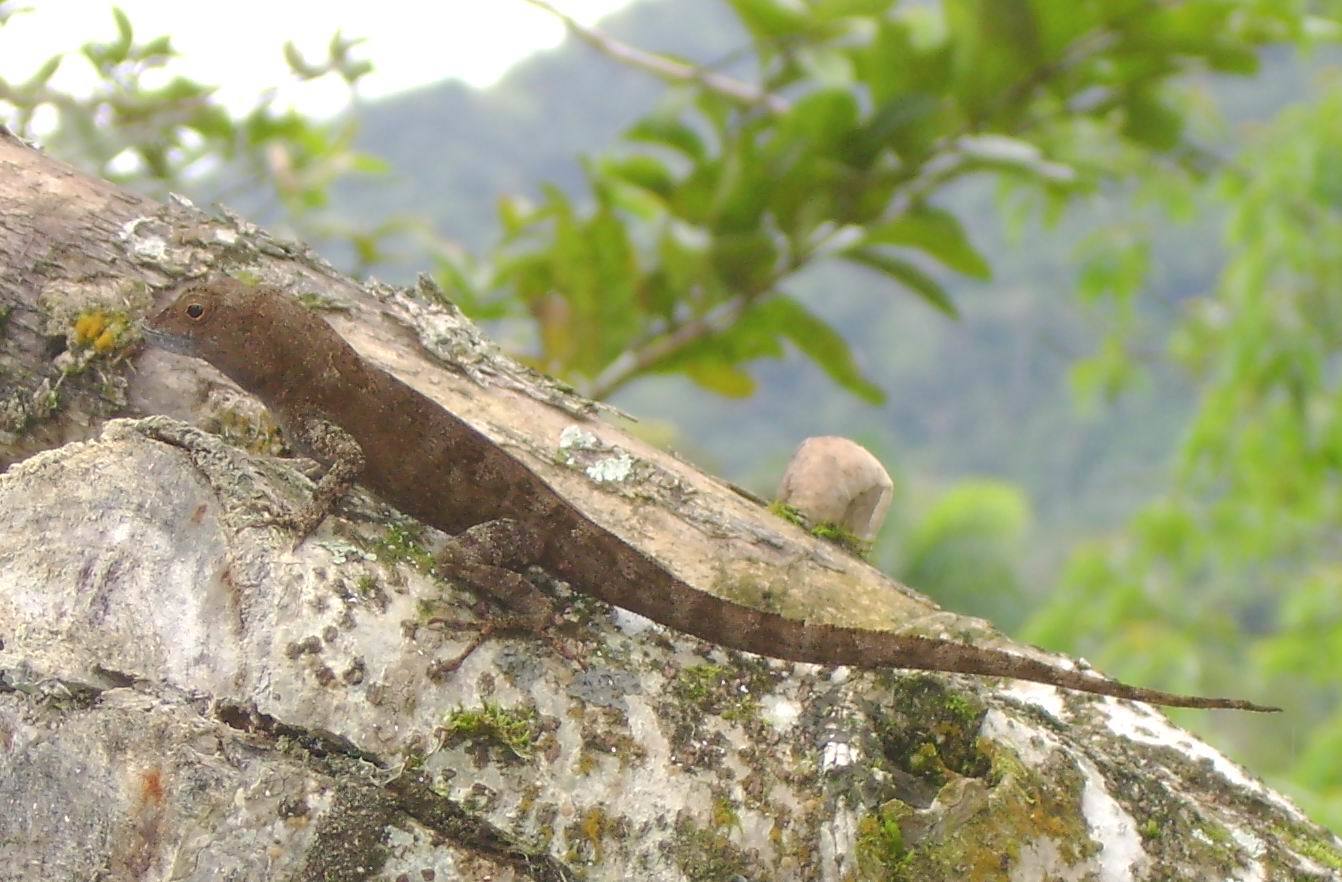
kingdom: Animalia
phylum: Chordata
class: Squamata
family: Dactyloidae
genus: Anolis
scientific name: Anolis cristatellus
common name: Crested anole
